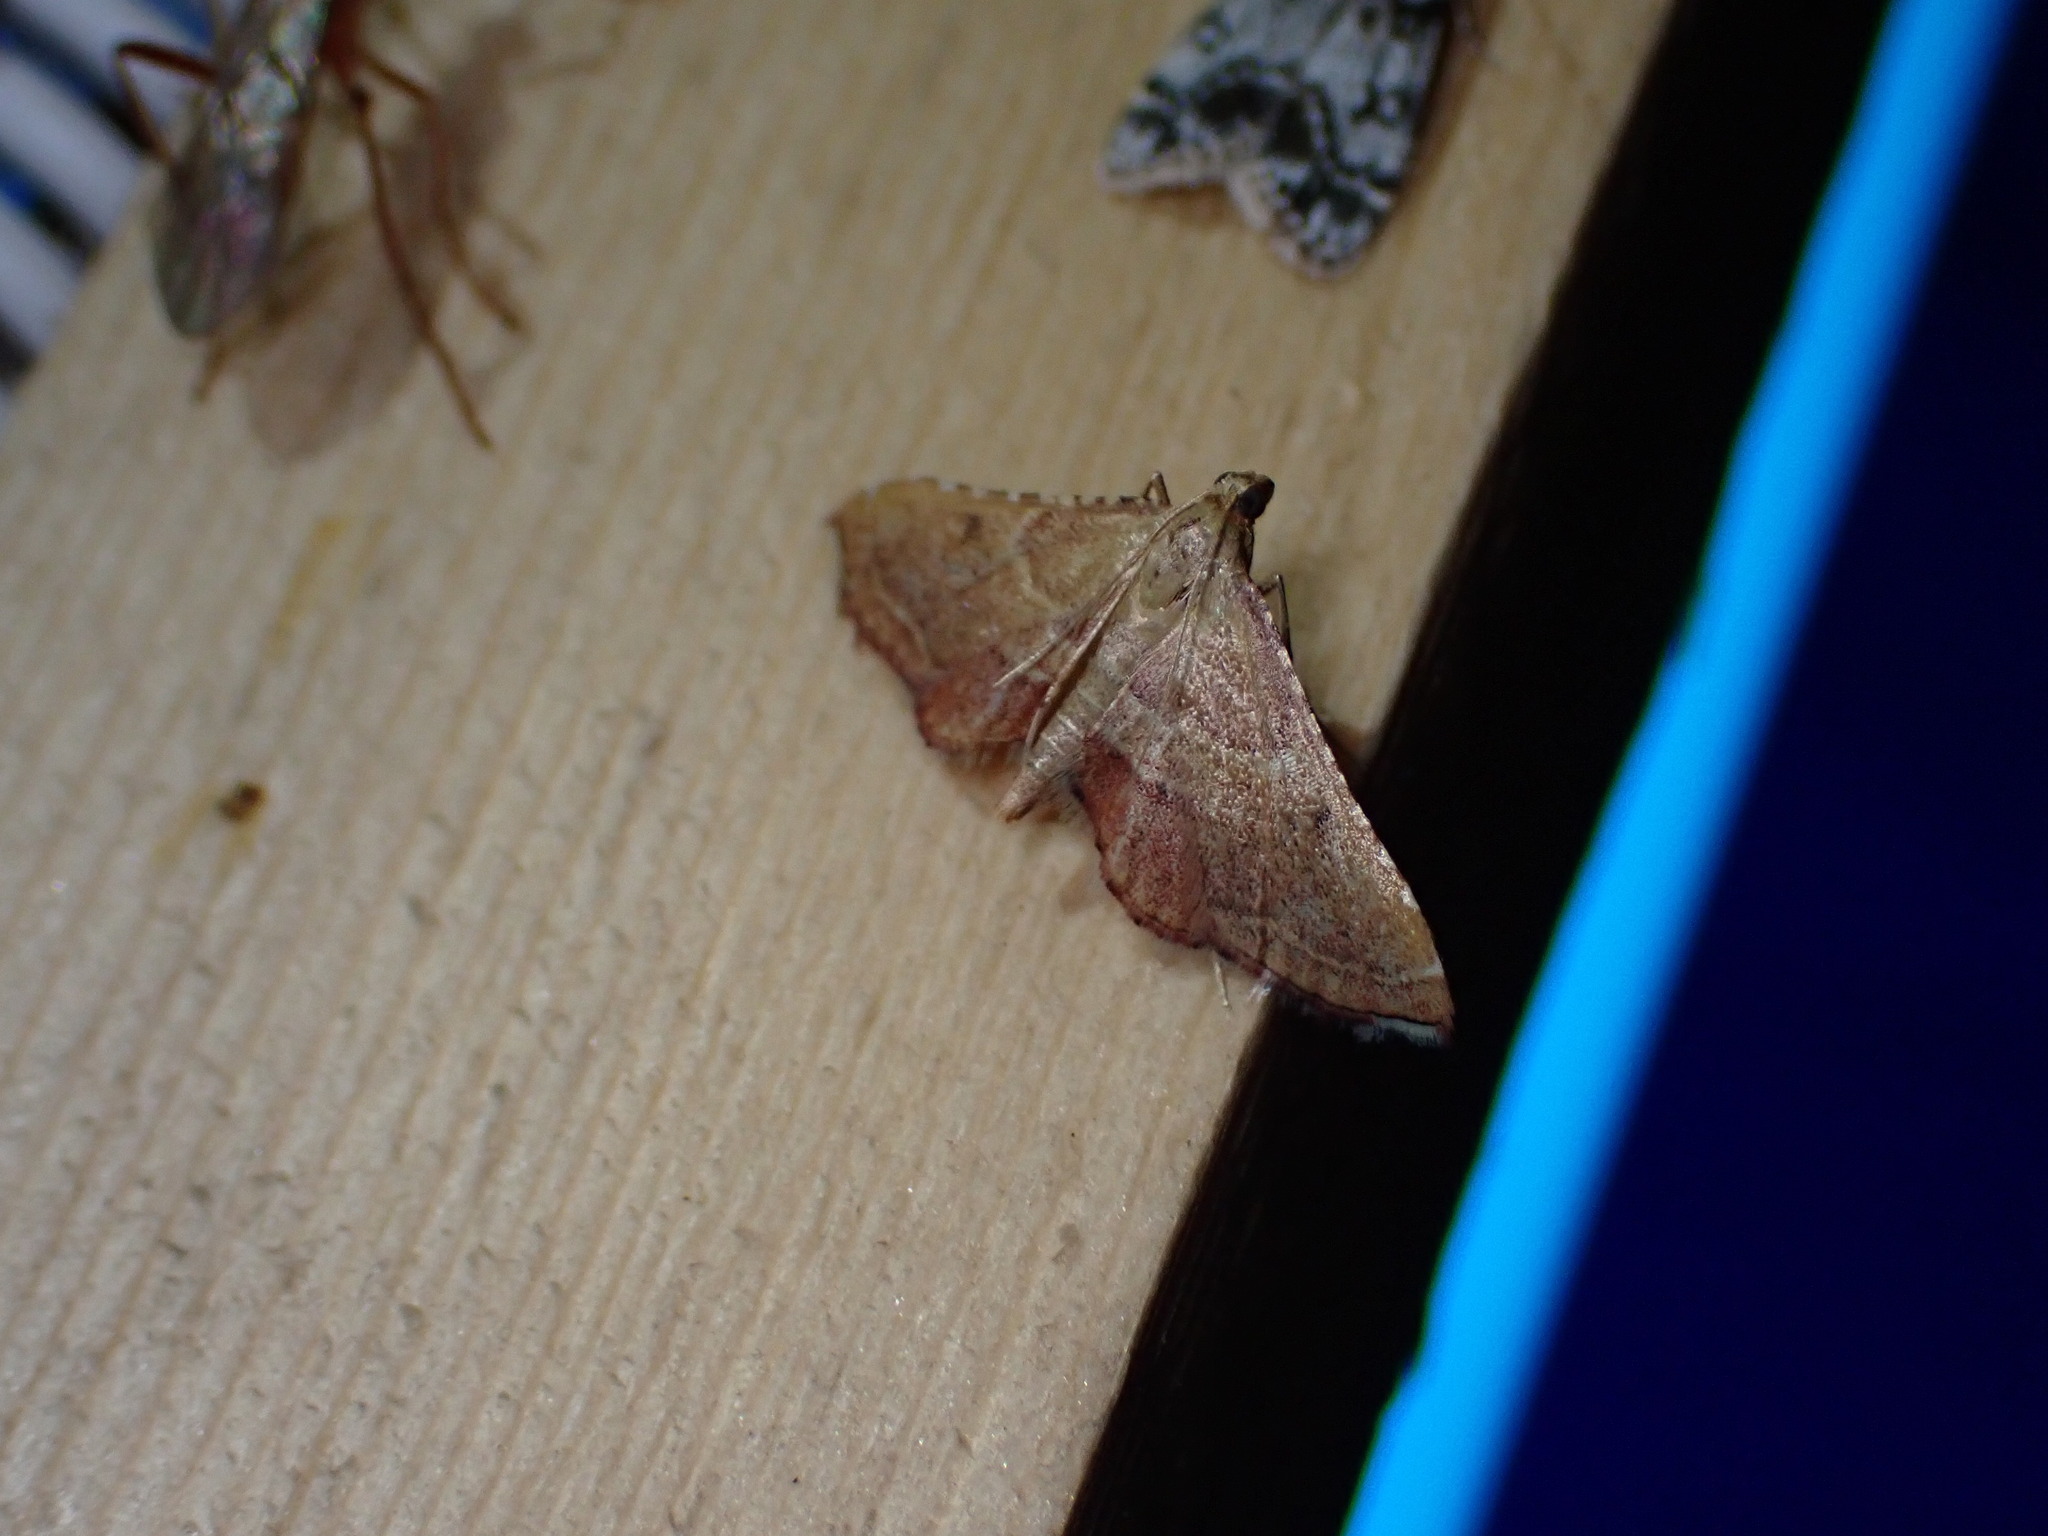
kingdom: Animalia
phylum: Arthropoda
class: Insecta
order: Lepidoptera
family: Pyralidae
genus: Endotricha
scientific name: Endotricha flammealis
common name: Rosy tabby
